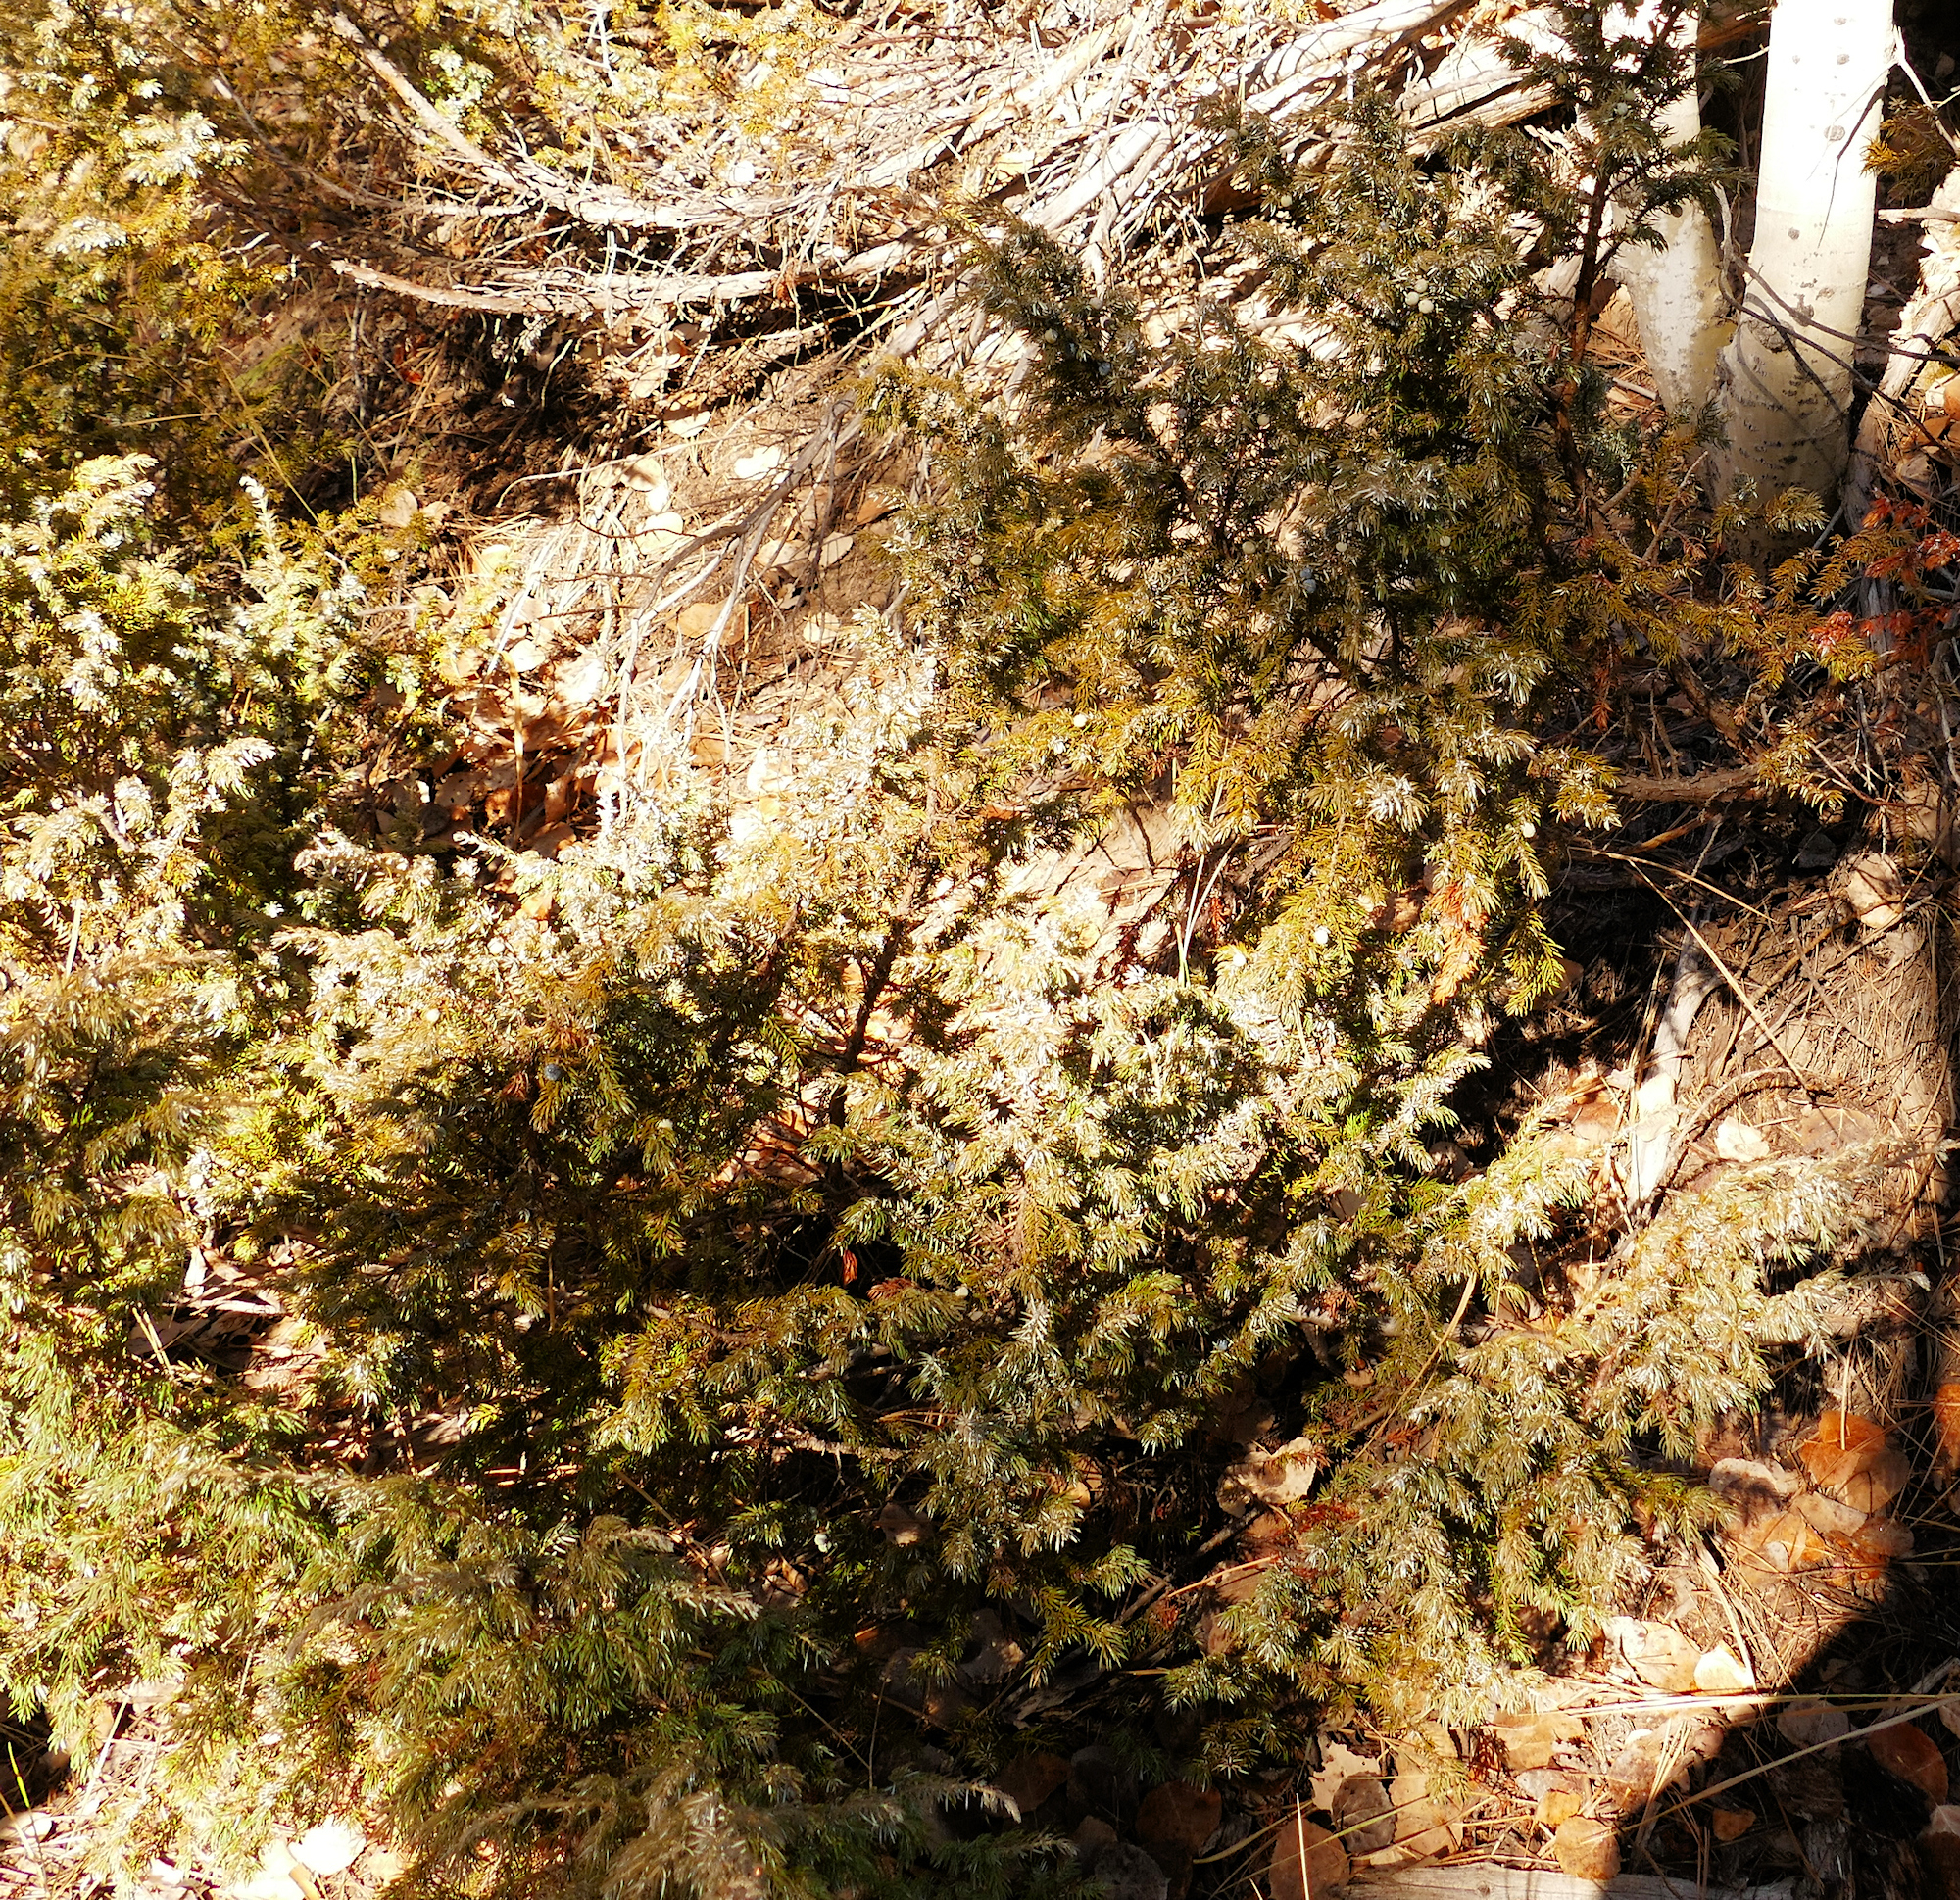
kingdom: Plantae
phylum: Tracheophyta
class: Pinopsida
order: Pinales
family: Cupressaceae
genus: Juniperus
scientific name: Juniperus communis
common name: Common juniper
